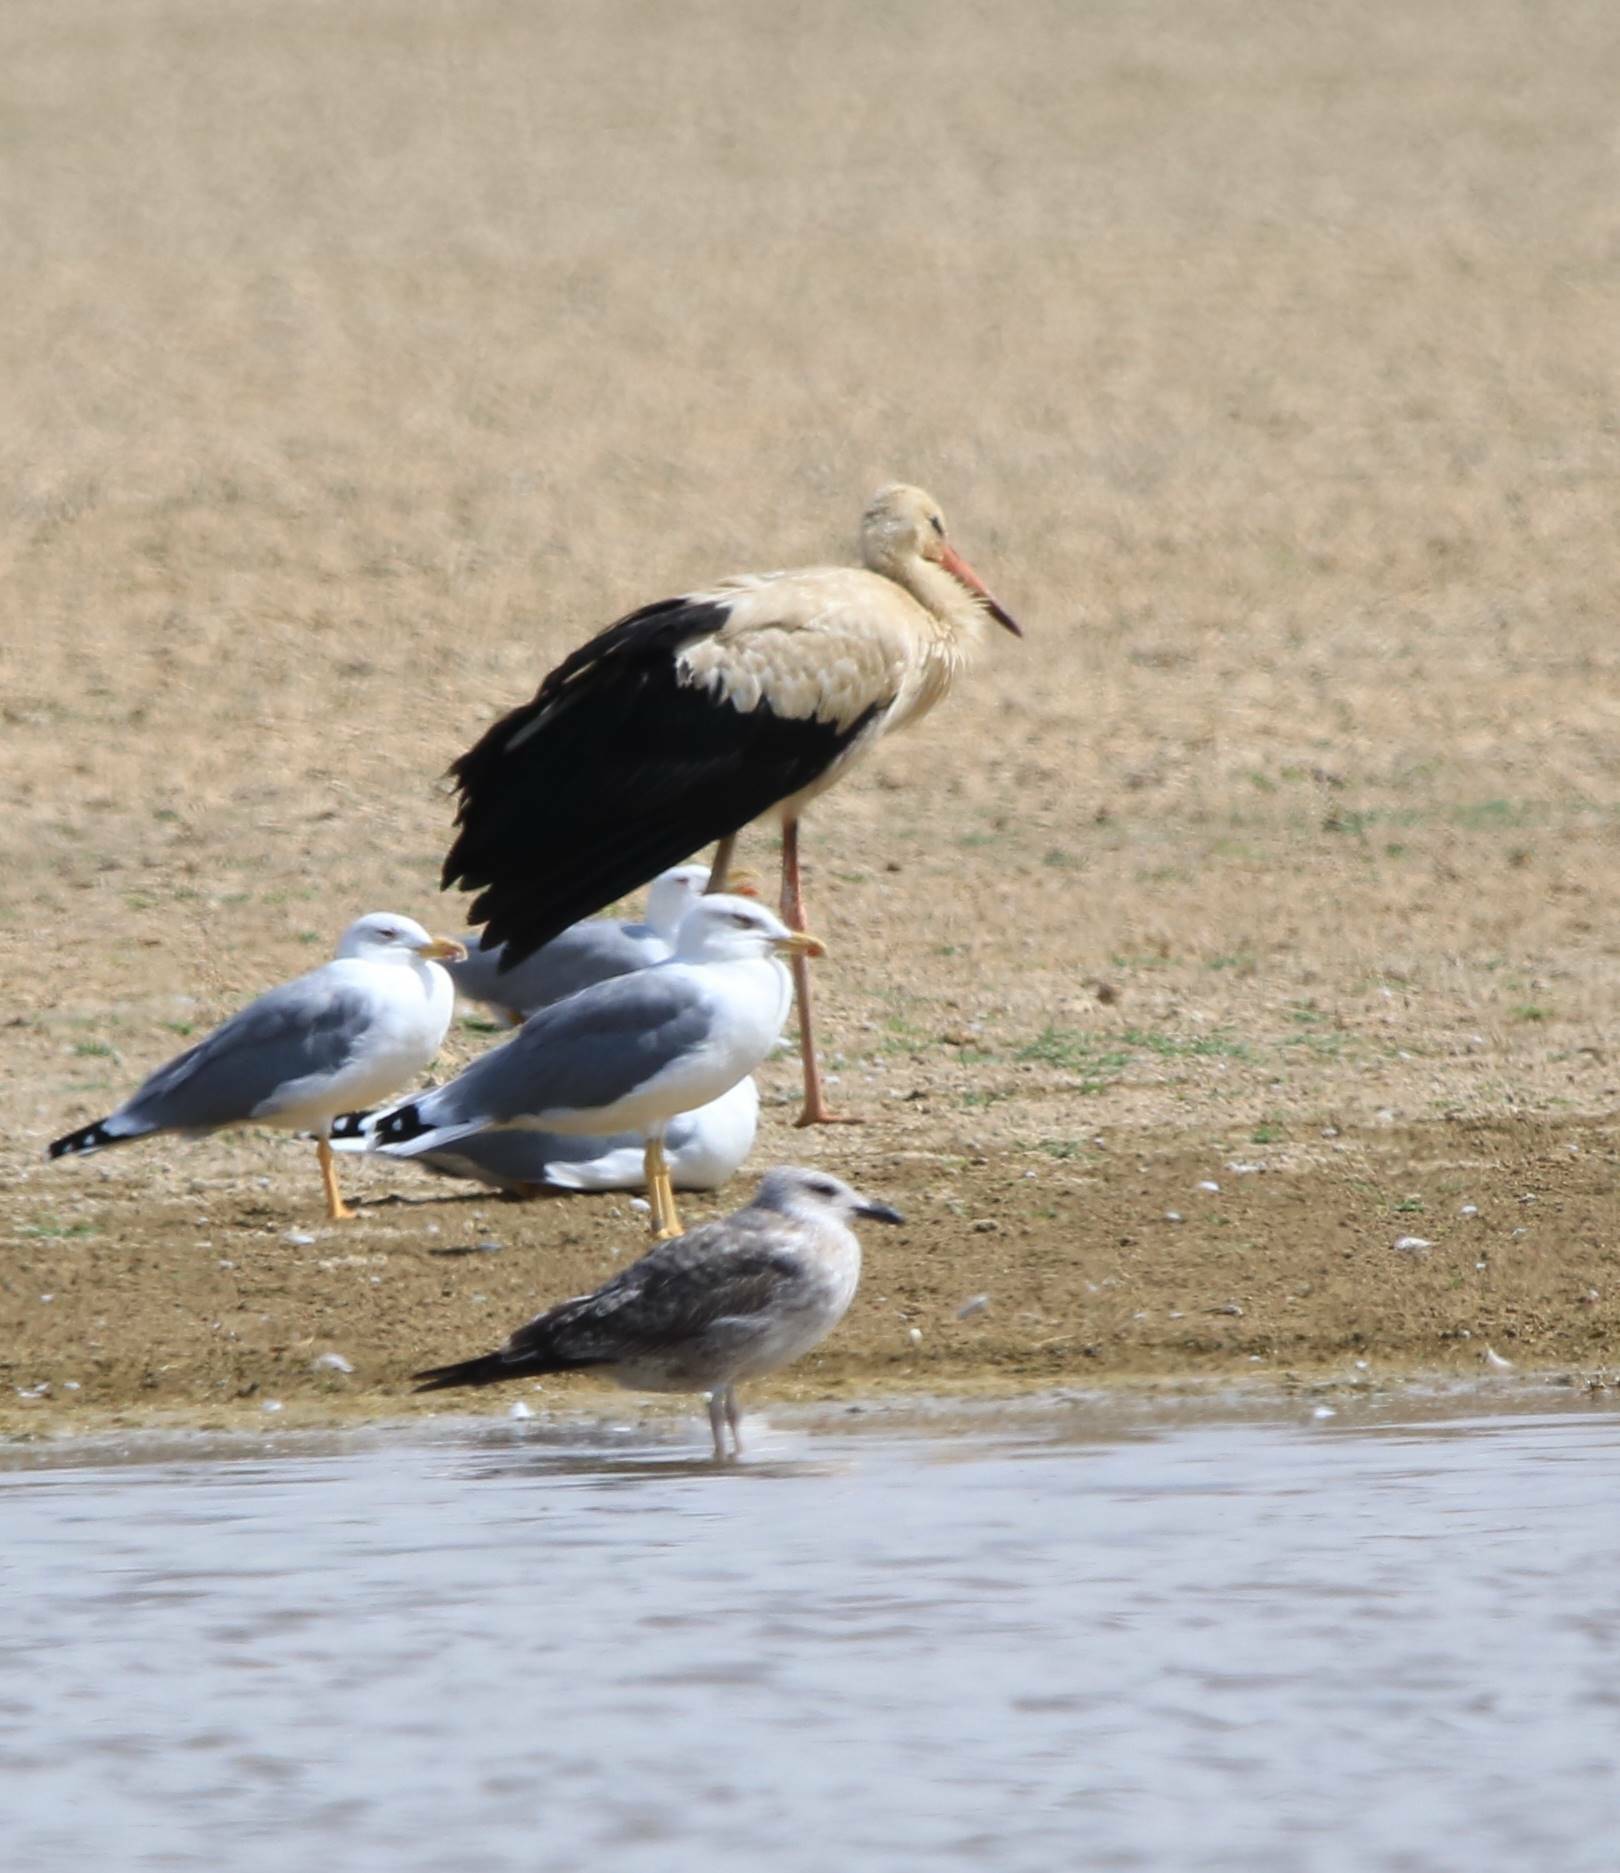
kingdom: Animalia
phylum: Chordata
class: Aves
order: Ciconiiformes
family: Ciconiidae
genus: Ciconia
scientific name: Ciconia ciconia
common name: White stork
